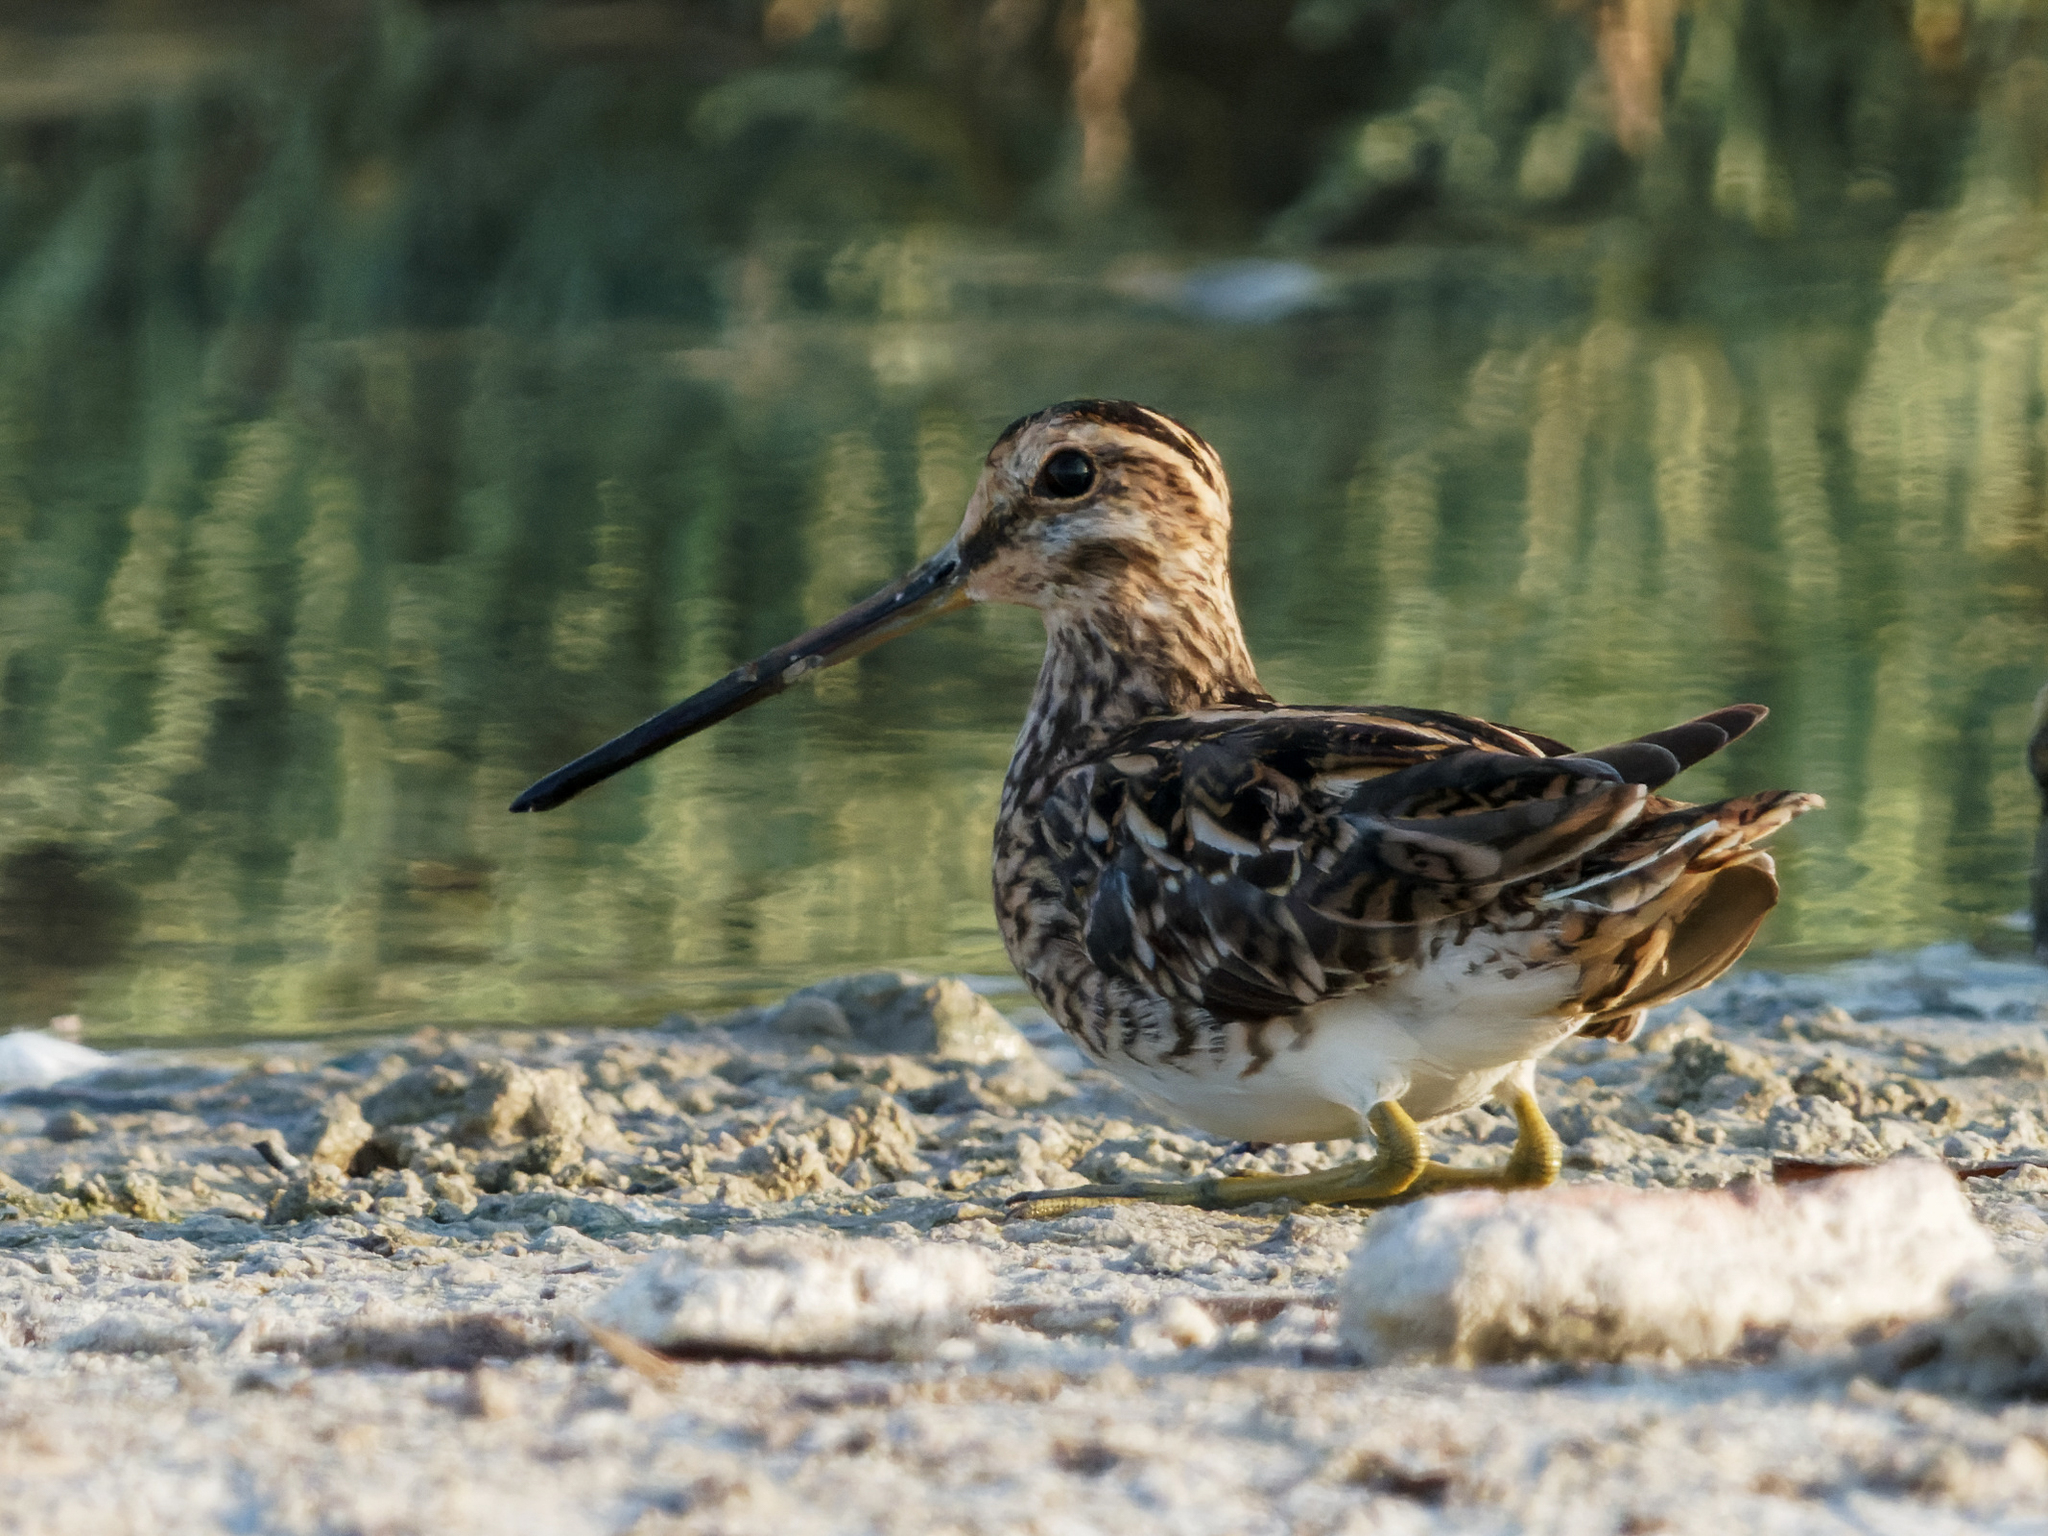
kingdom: Animalia
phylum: Chordata
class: Aves
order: Charadriiformes
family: Scolopacidae
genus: Gallinago
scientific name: Gallinago gallinago
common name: Common snipe
